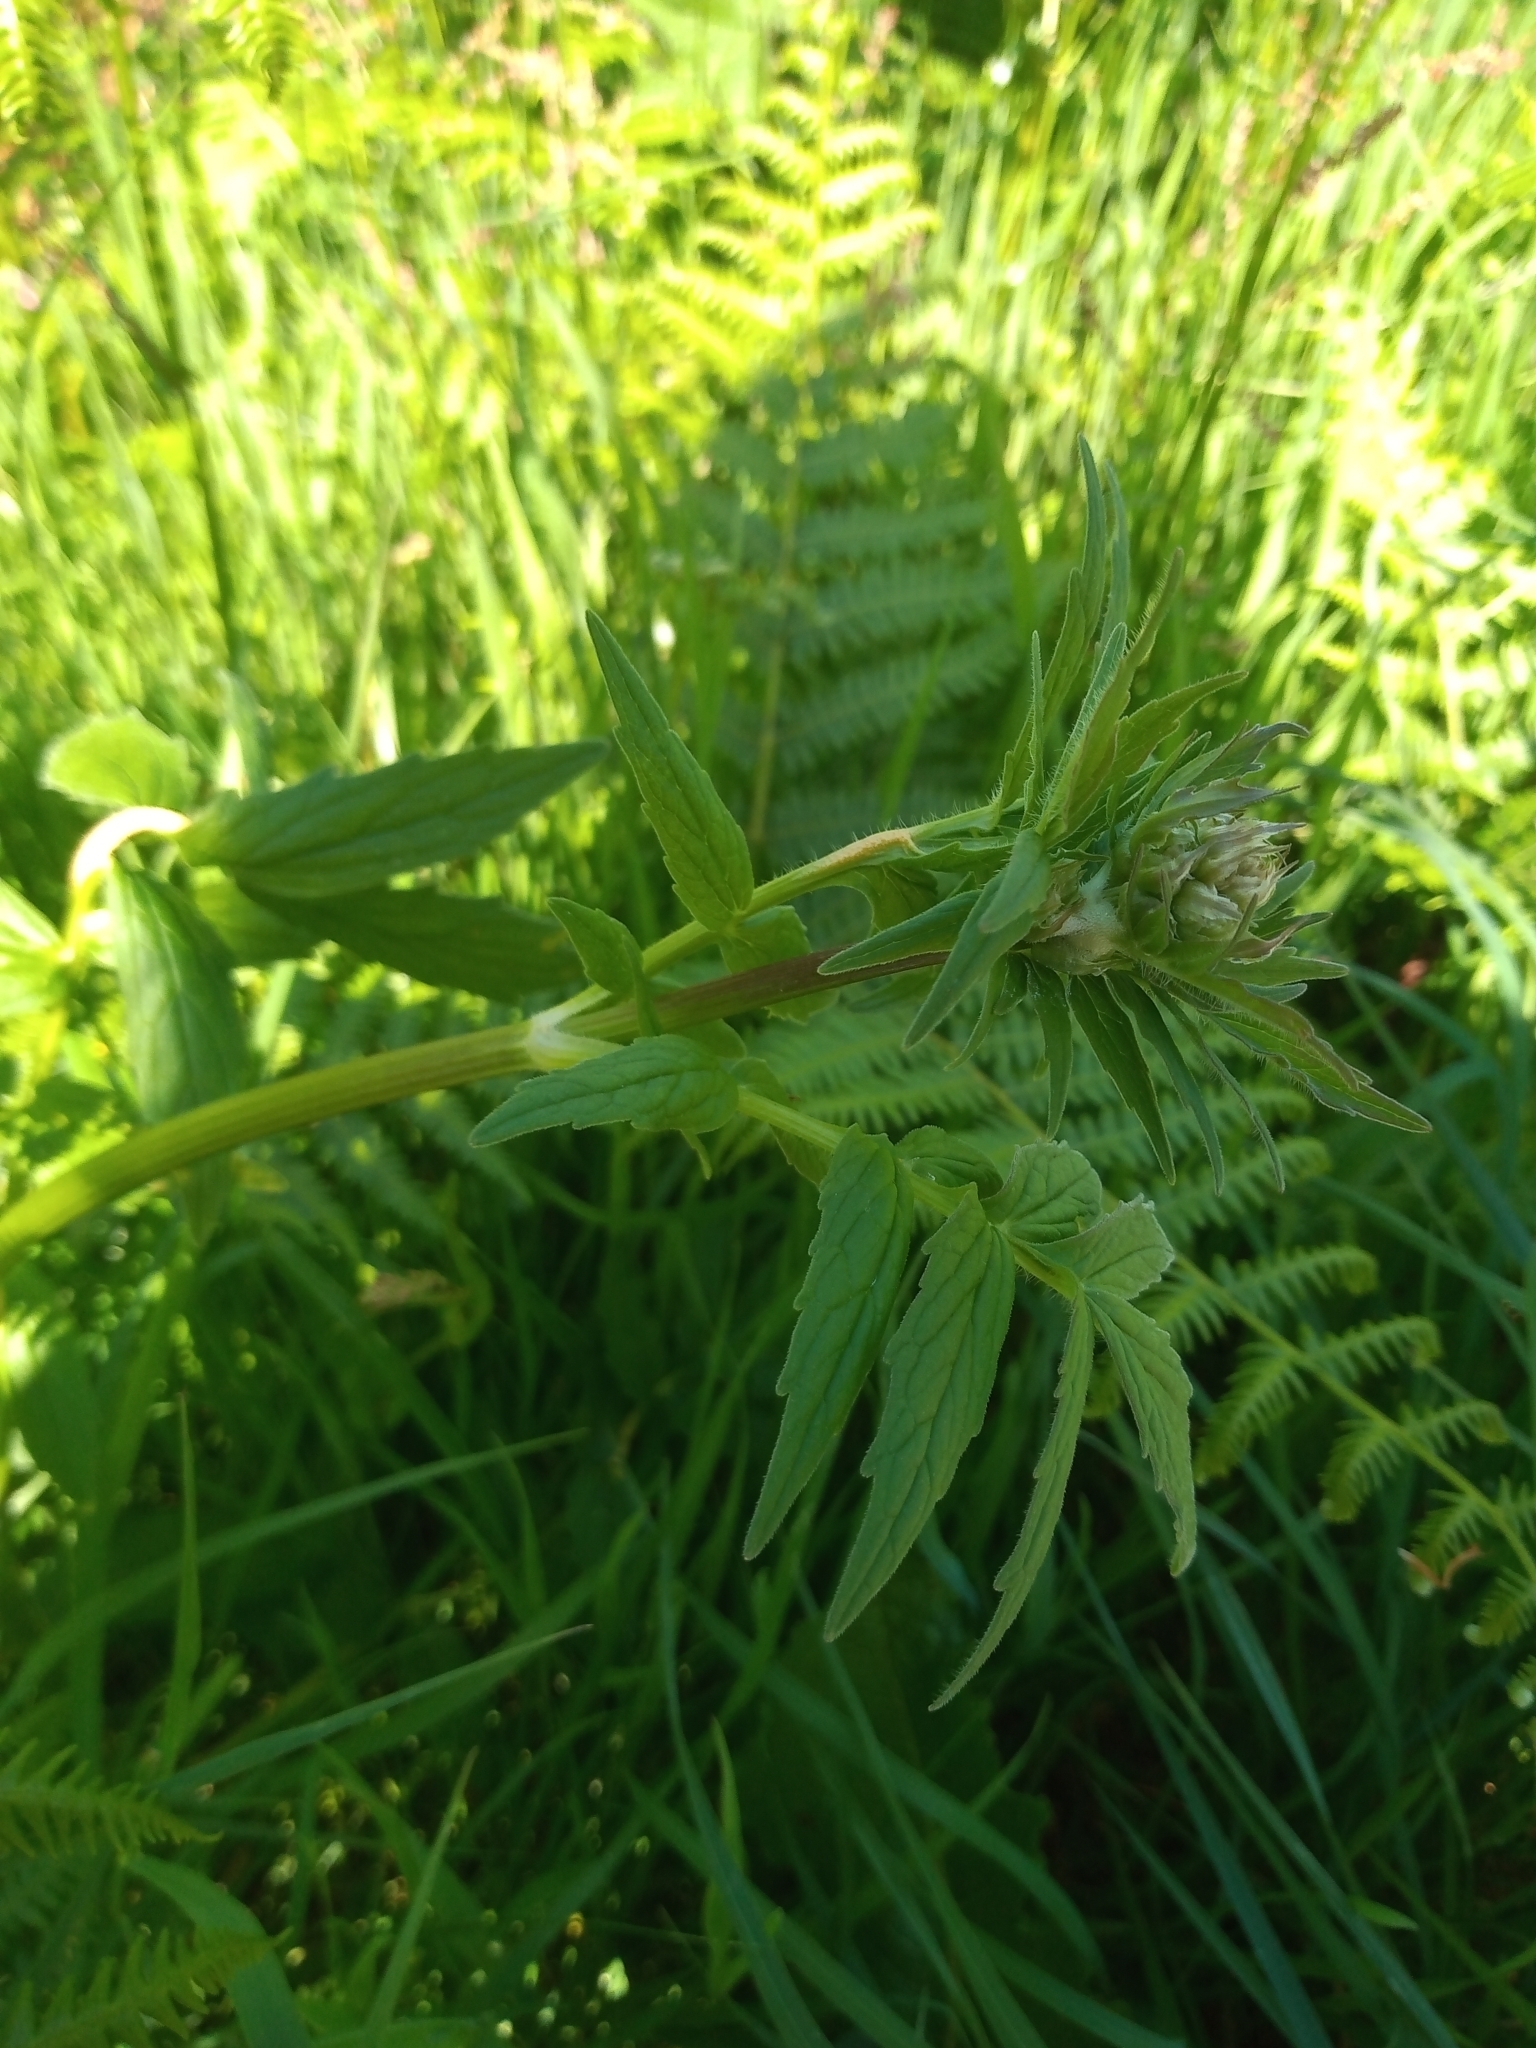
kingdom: Plantae
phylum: Tracheophyta
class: Magnoliopsida
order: Dipsacales
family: Caprifoliaceae
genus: Valeriana
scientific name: Valeriana officinalis
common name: Common valerian
